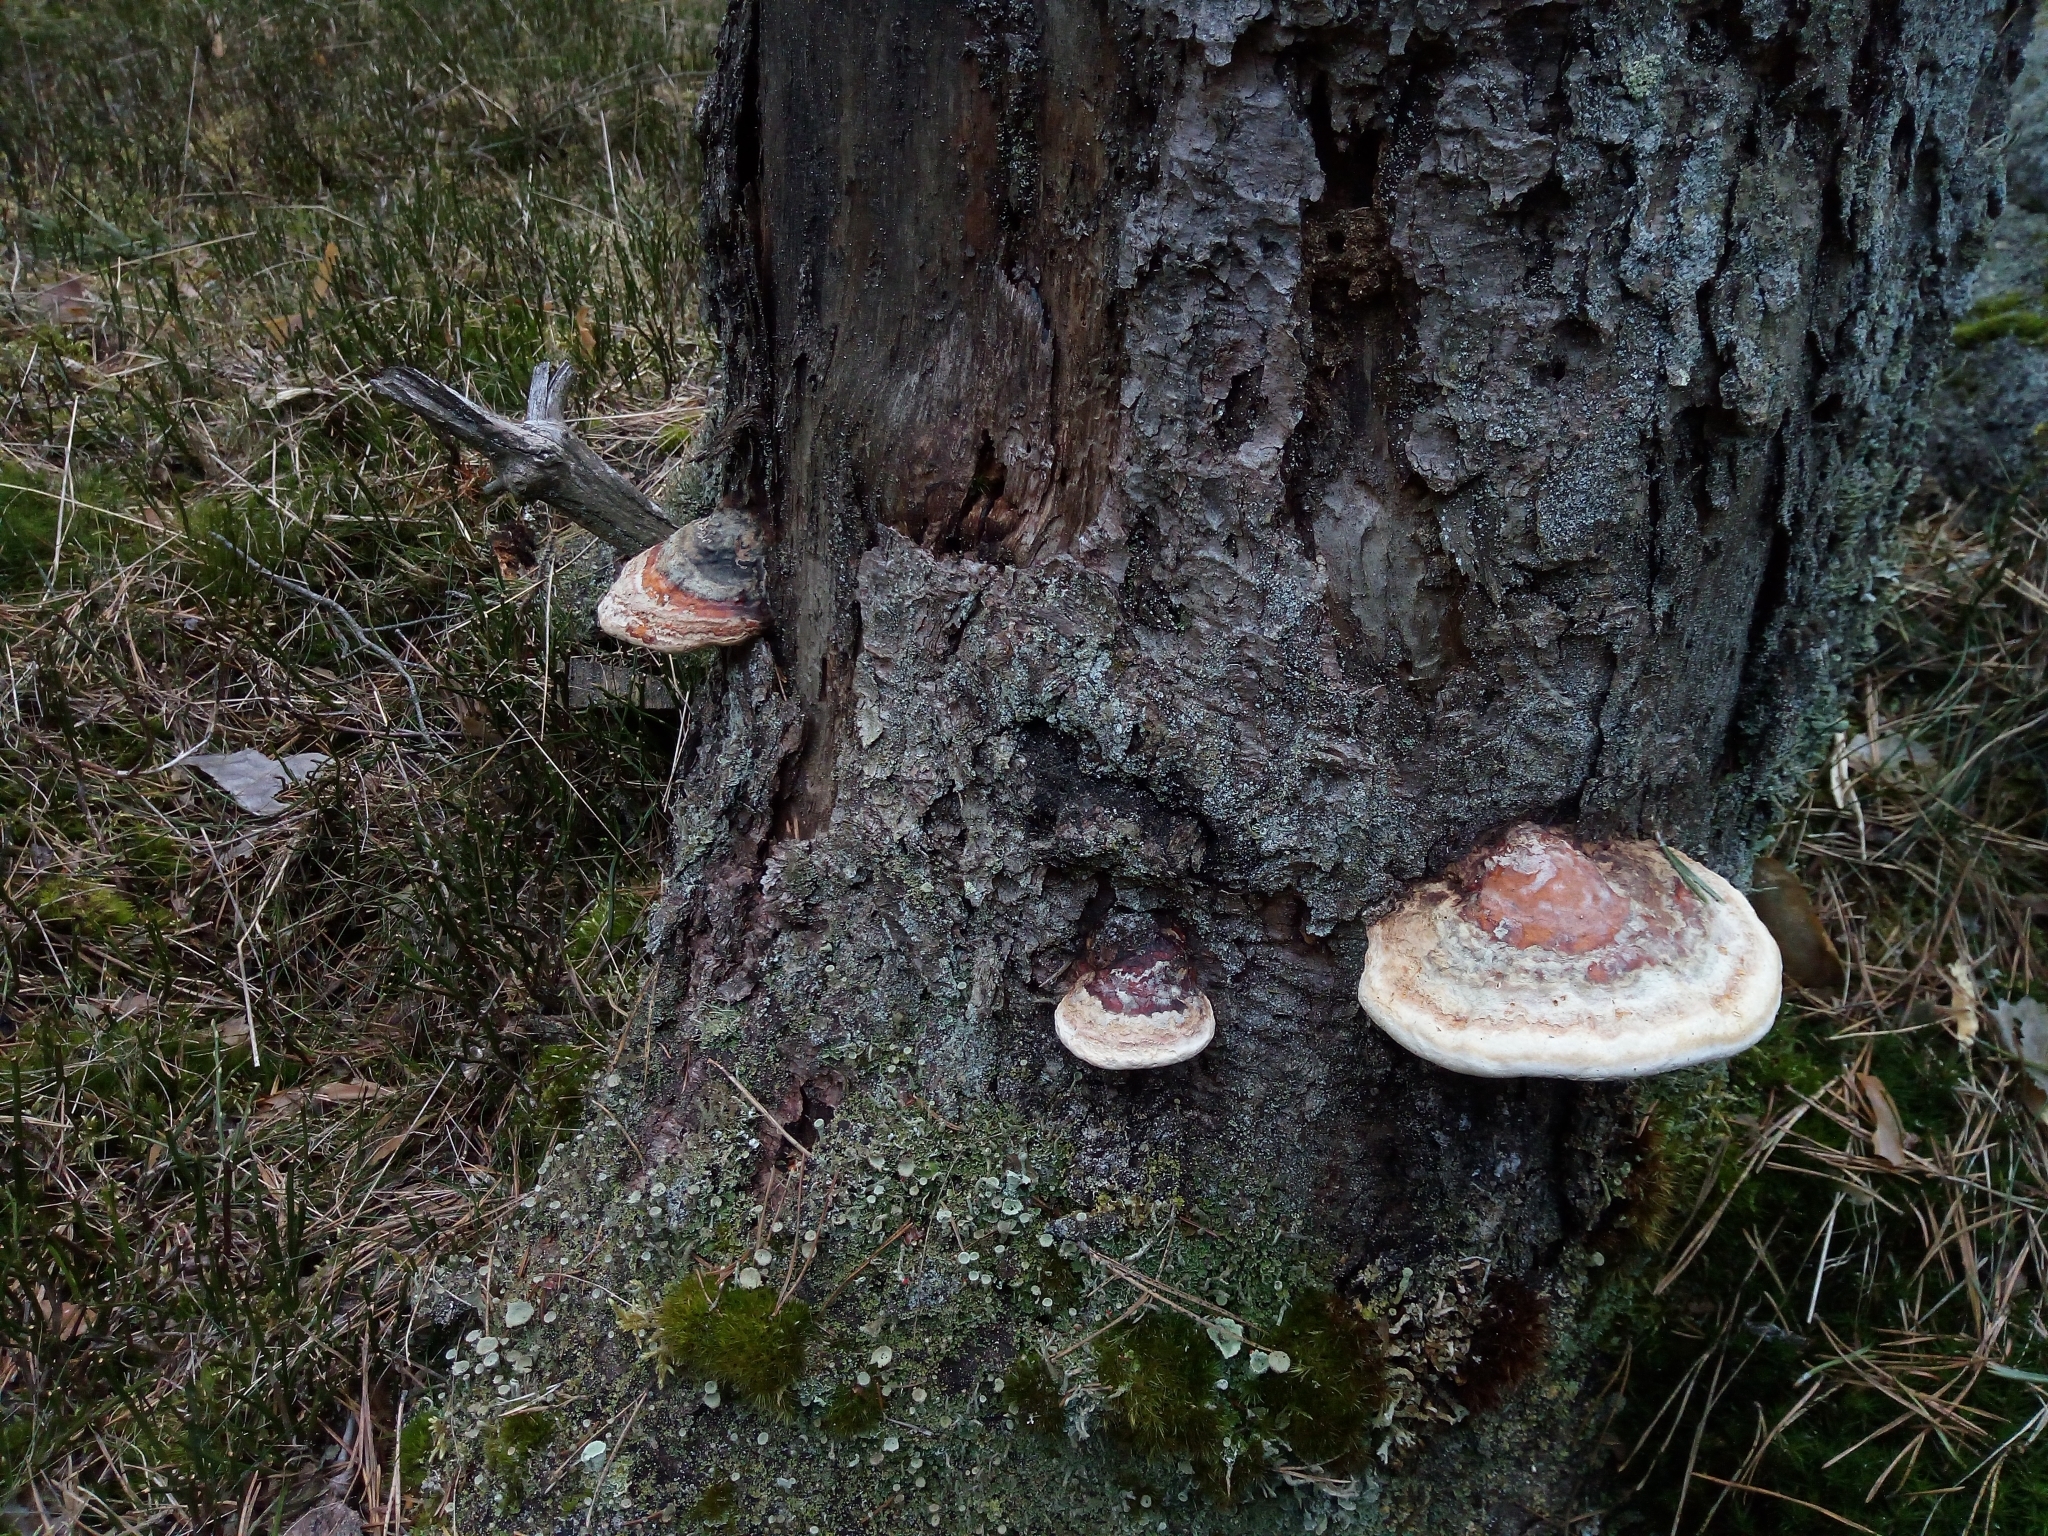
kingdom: Fungi
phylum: Basidiomycota
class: Agaricomycetes
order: Polyporales
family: Fomitopsidaceae
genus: Fomitopsis
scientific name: Fomitopsis pinicola
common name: Red-belted bracket
